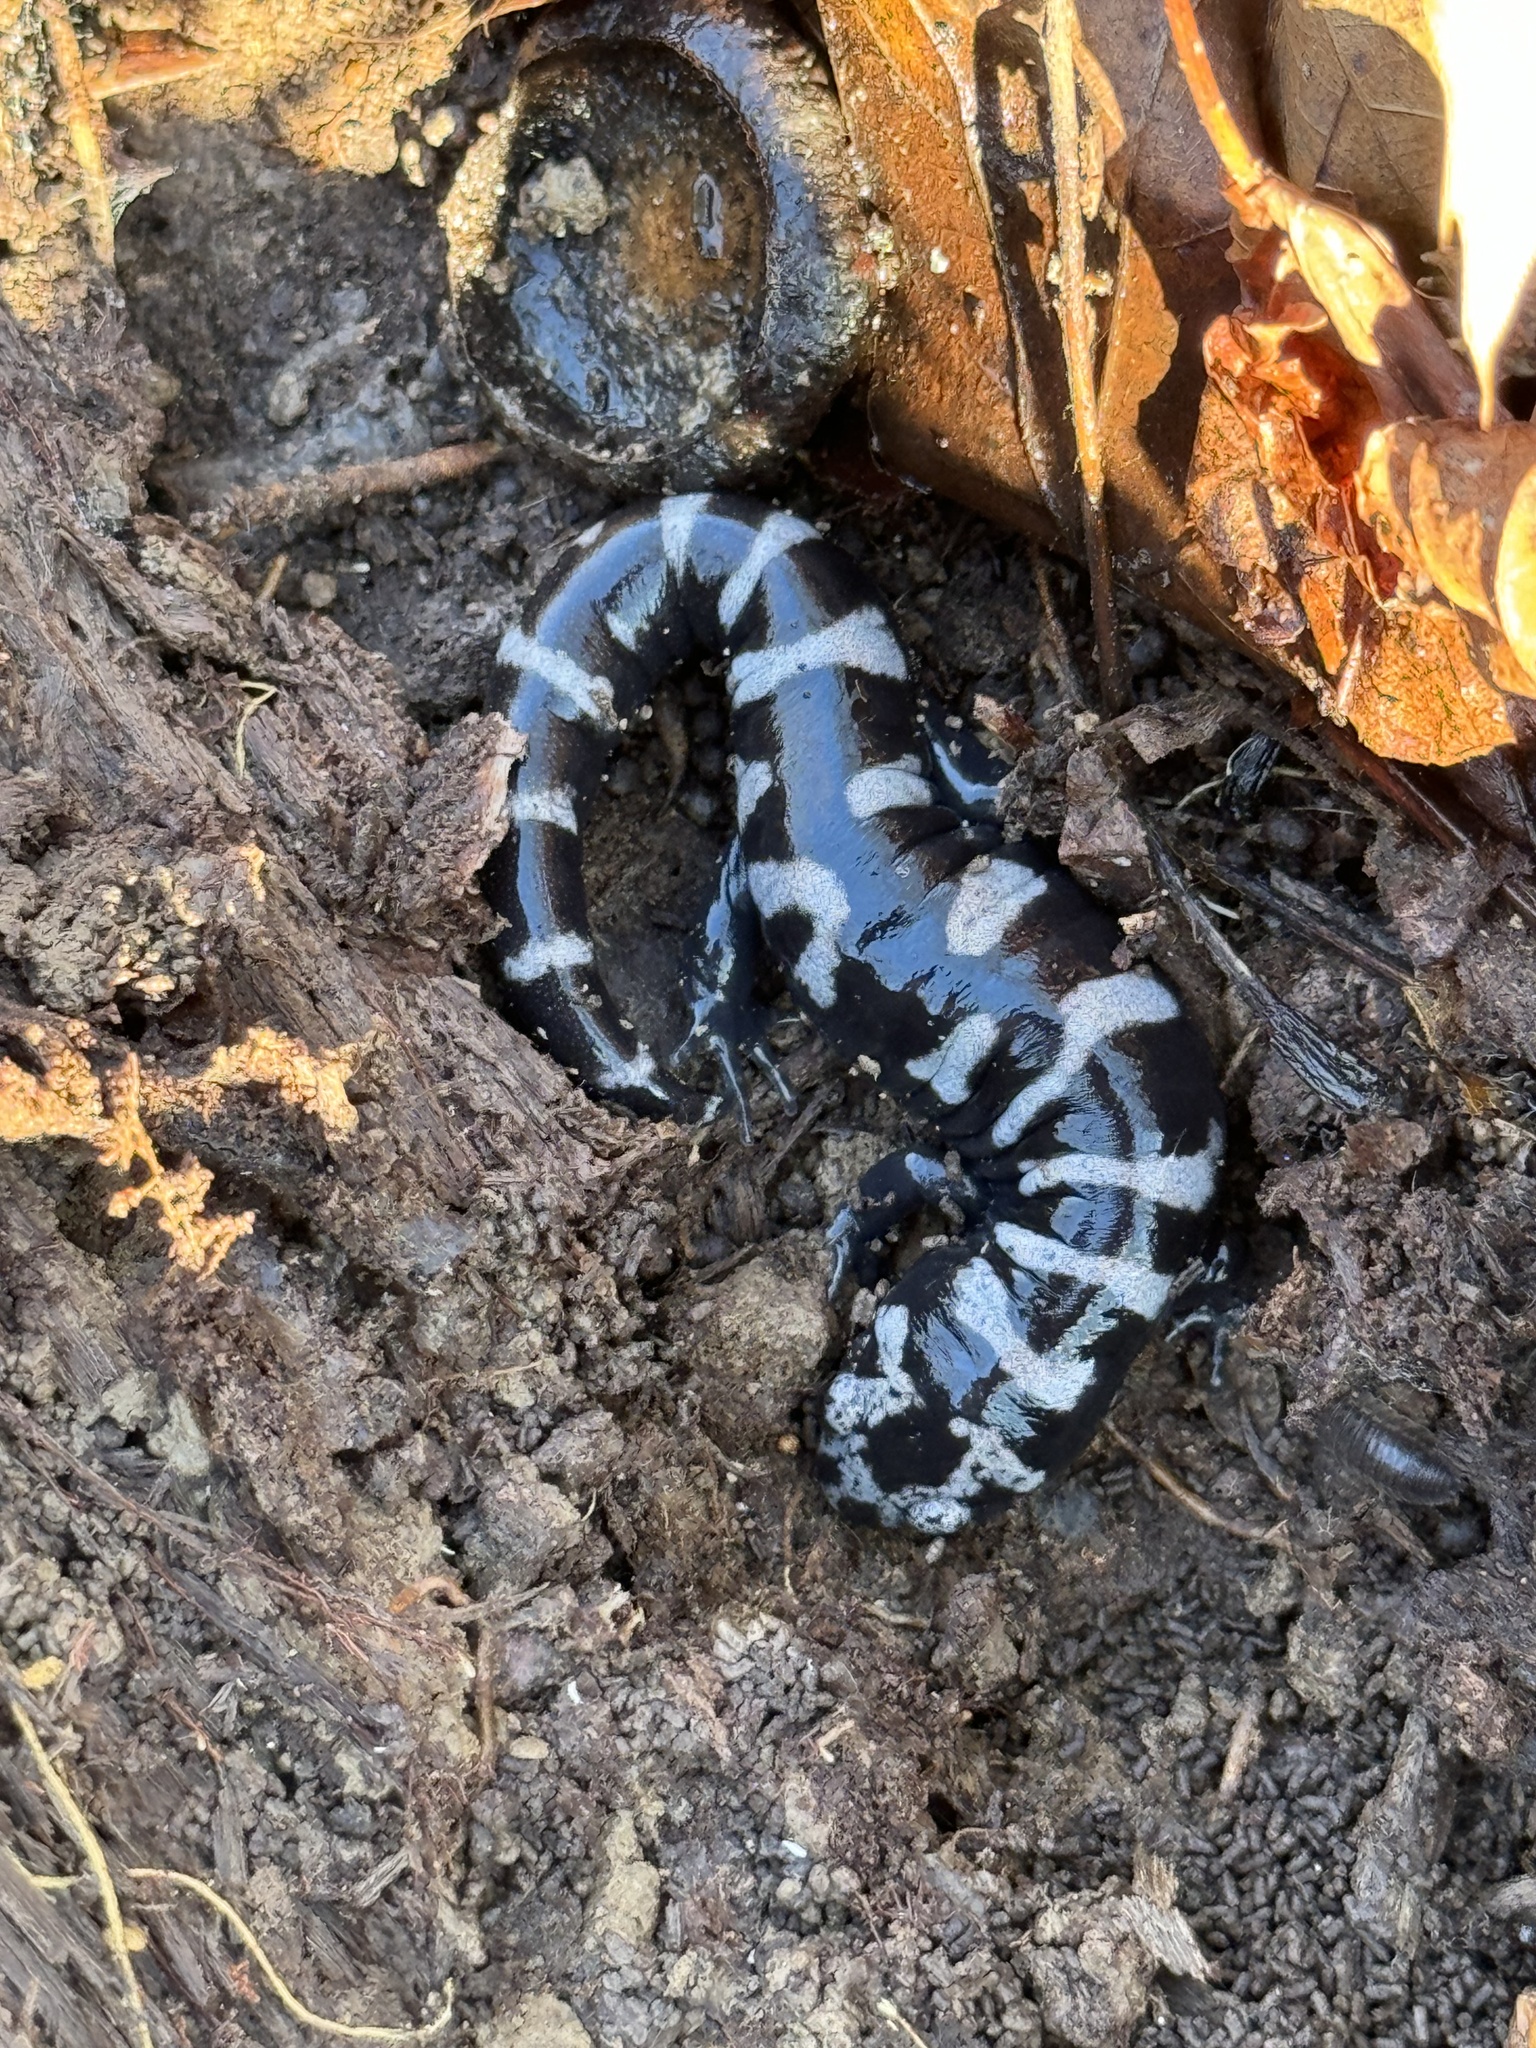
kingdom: Animalia
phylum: Chordata
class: Amphibia
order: Caudata
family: Ambystomatidae
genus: Ambystoma
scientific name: Ambystoma opacum
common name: Marbled salamander
